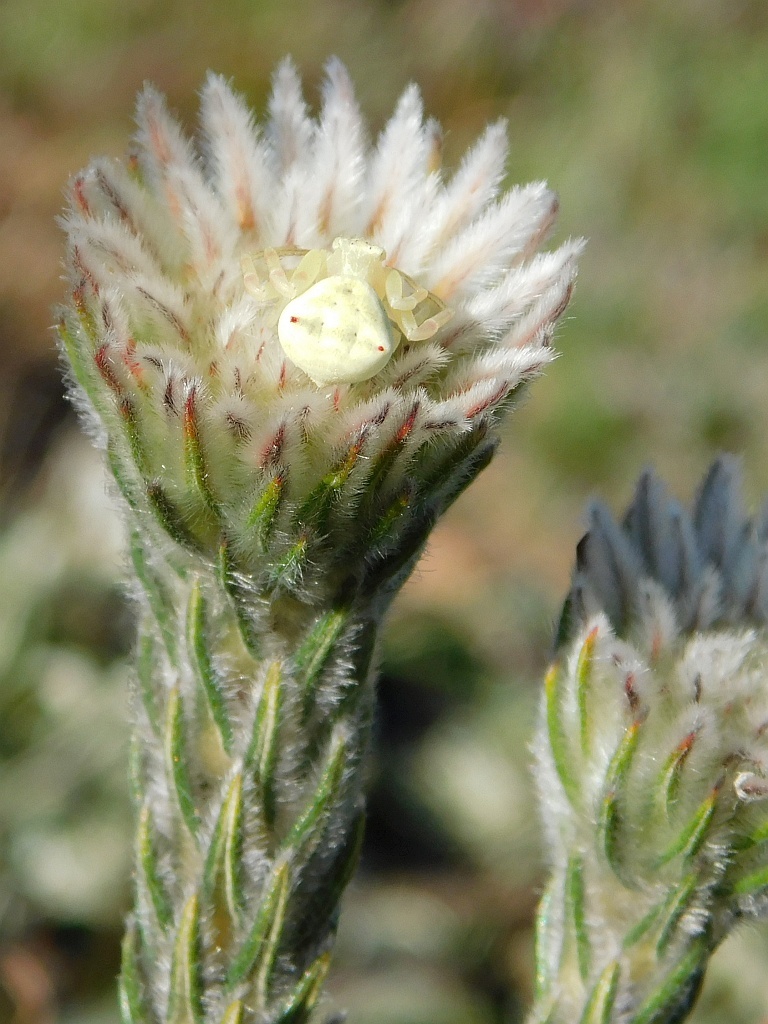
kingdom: Plantae
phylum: Tracheophyta
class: Magnoliopsida
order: Rosales
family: Rhamnaceae
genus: Phylica
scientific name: Phylica calcarata
